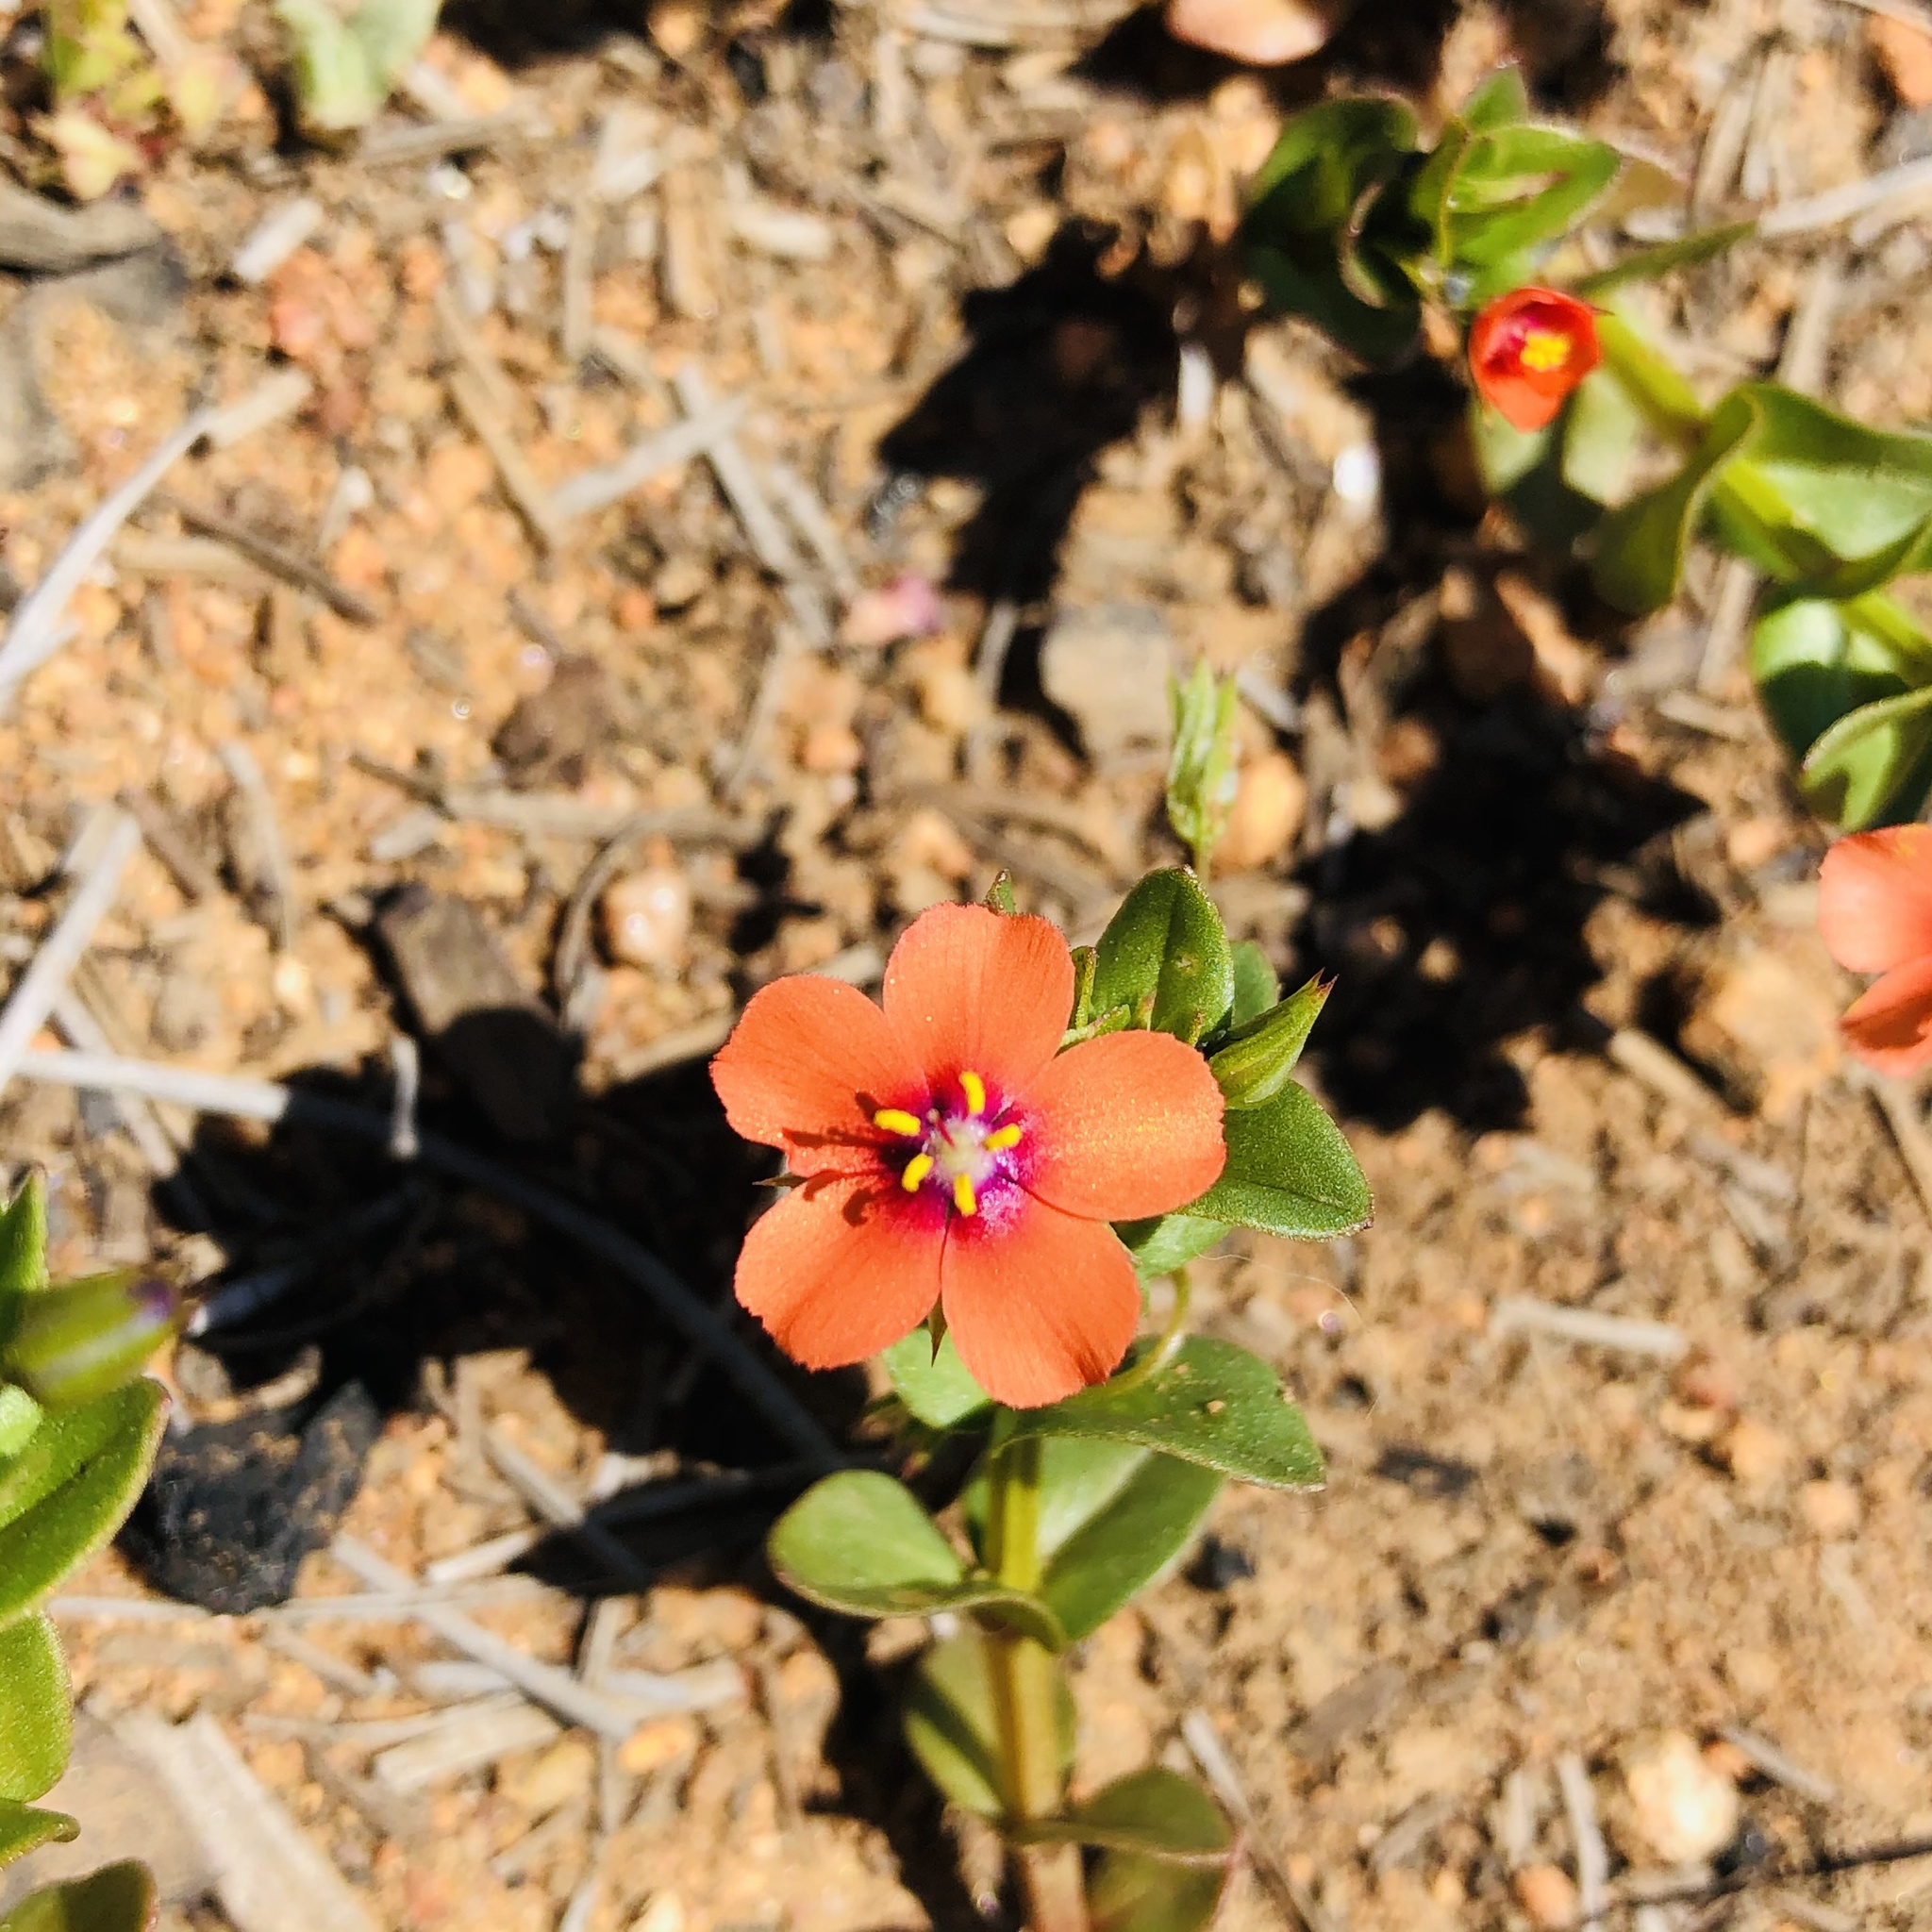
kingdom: Plantae
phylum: Tracheophyta
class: Magnoliopsida
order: Ericales
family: Primulaceae
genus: Lysimachia
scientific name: Lysimachia arvensis
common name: Scarlet pimpernel
